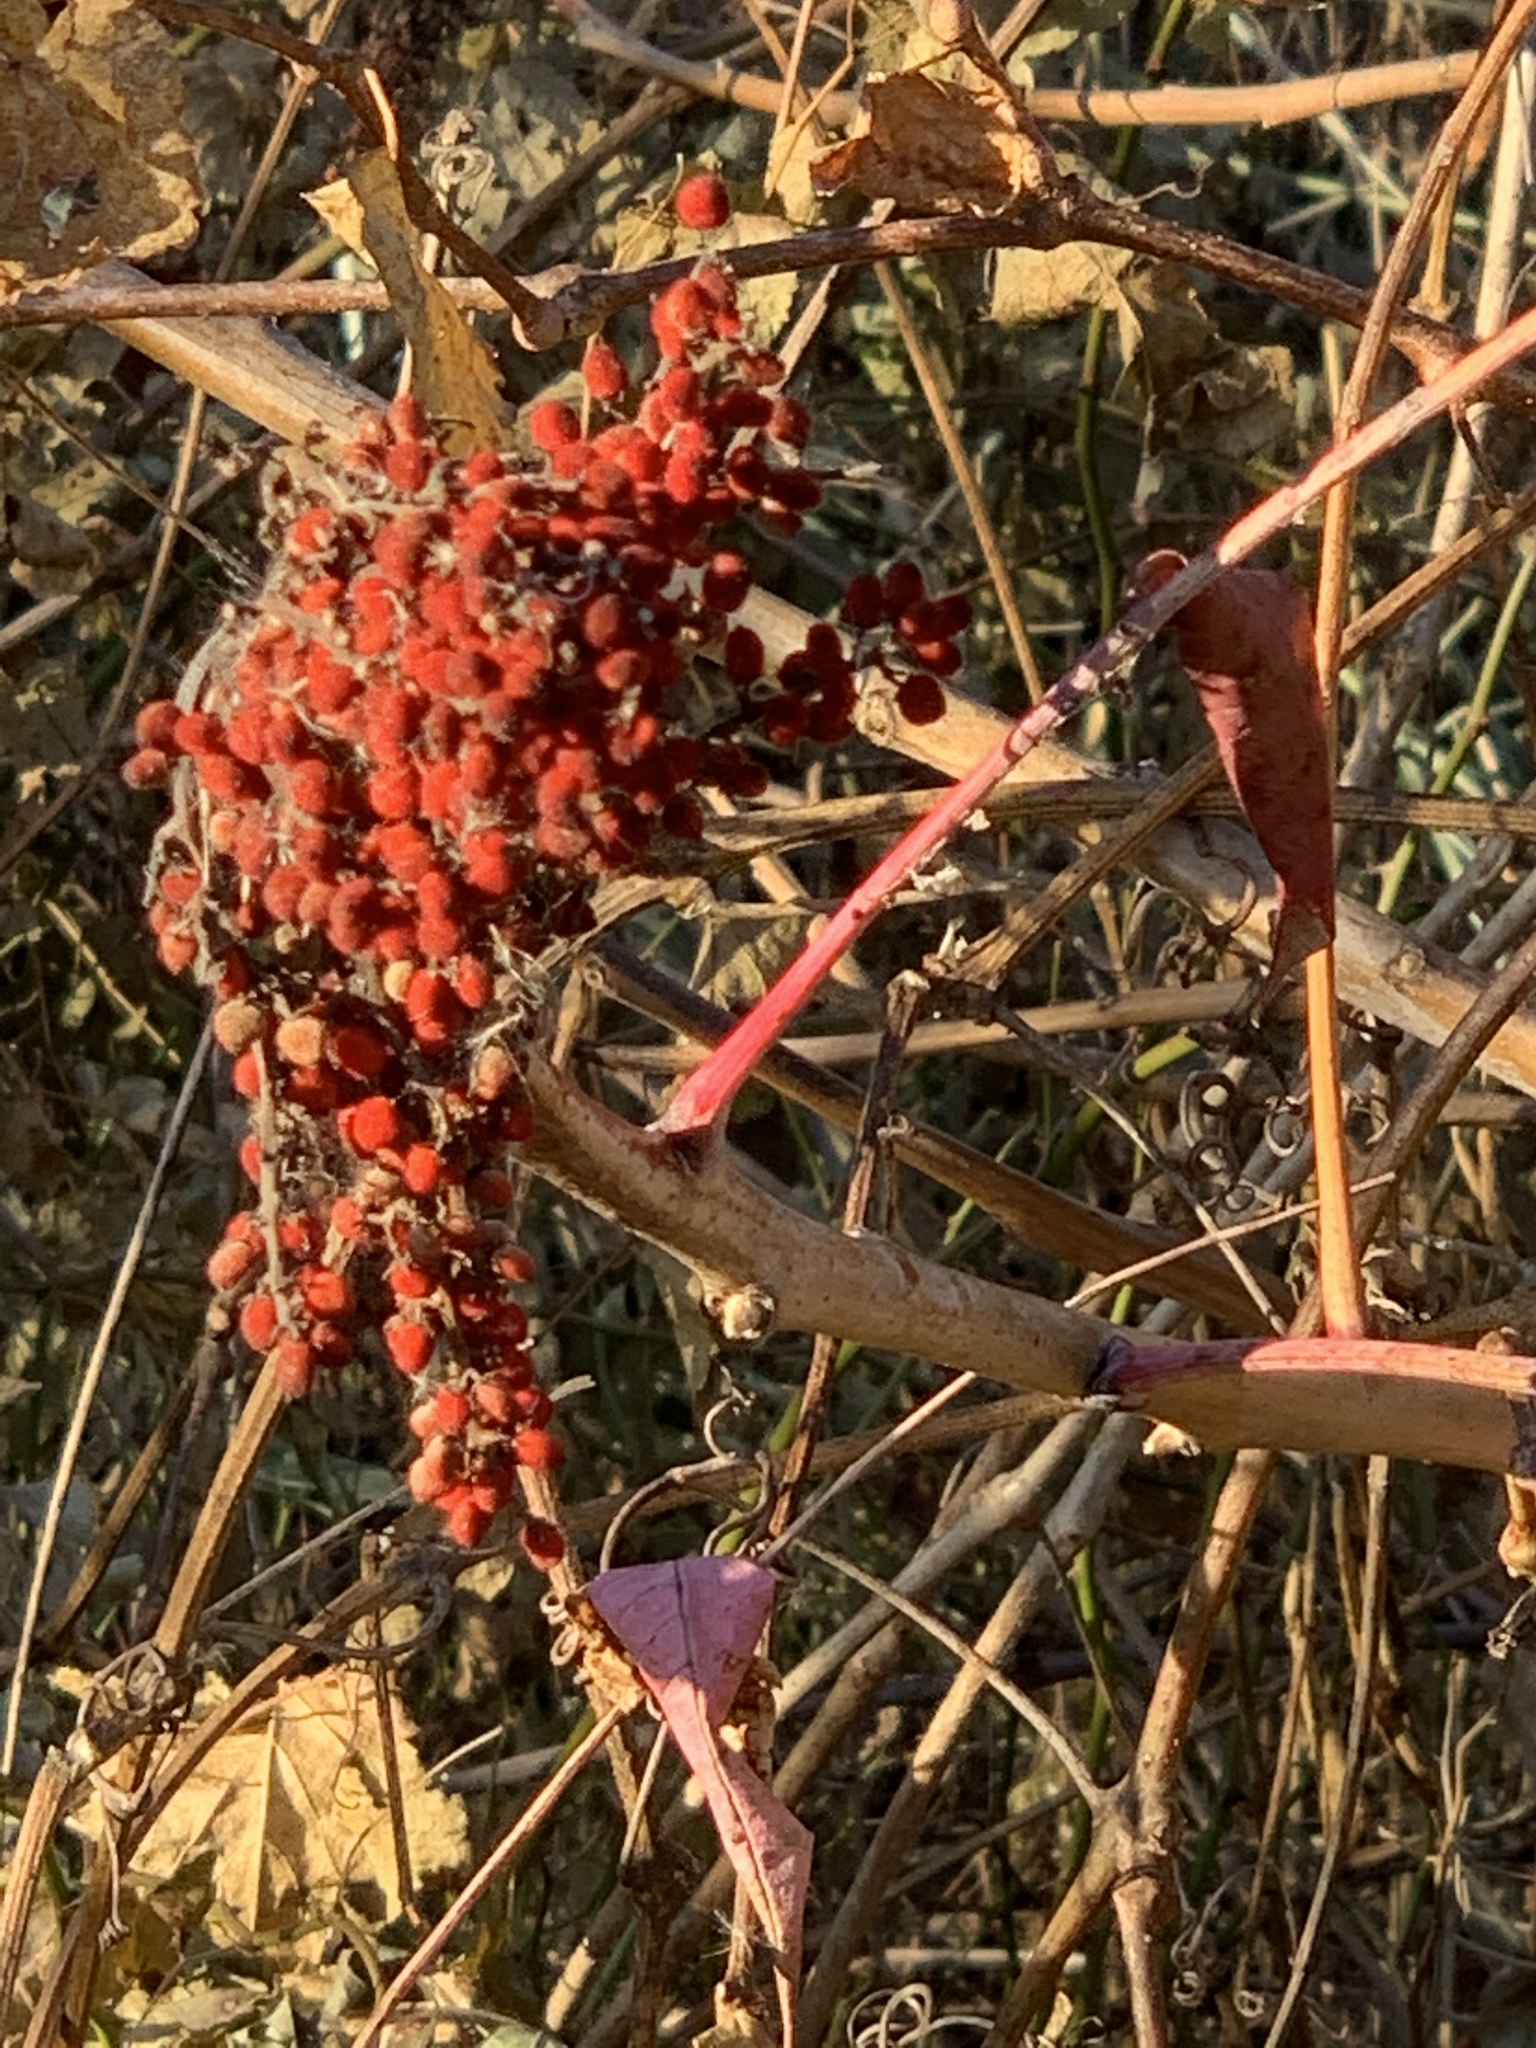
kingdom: Plantae
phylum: Tracheophyta
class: Magnoliopsida
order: Sapindales
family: Anacardiaceae
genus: Rhus
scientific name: Rhus glabra
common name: Scarlet sumac
